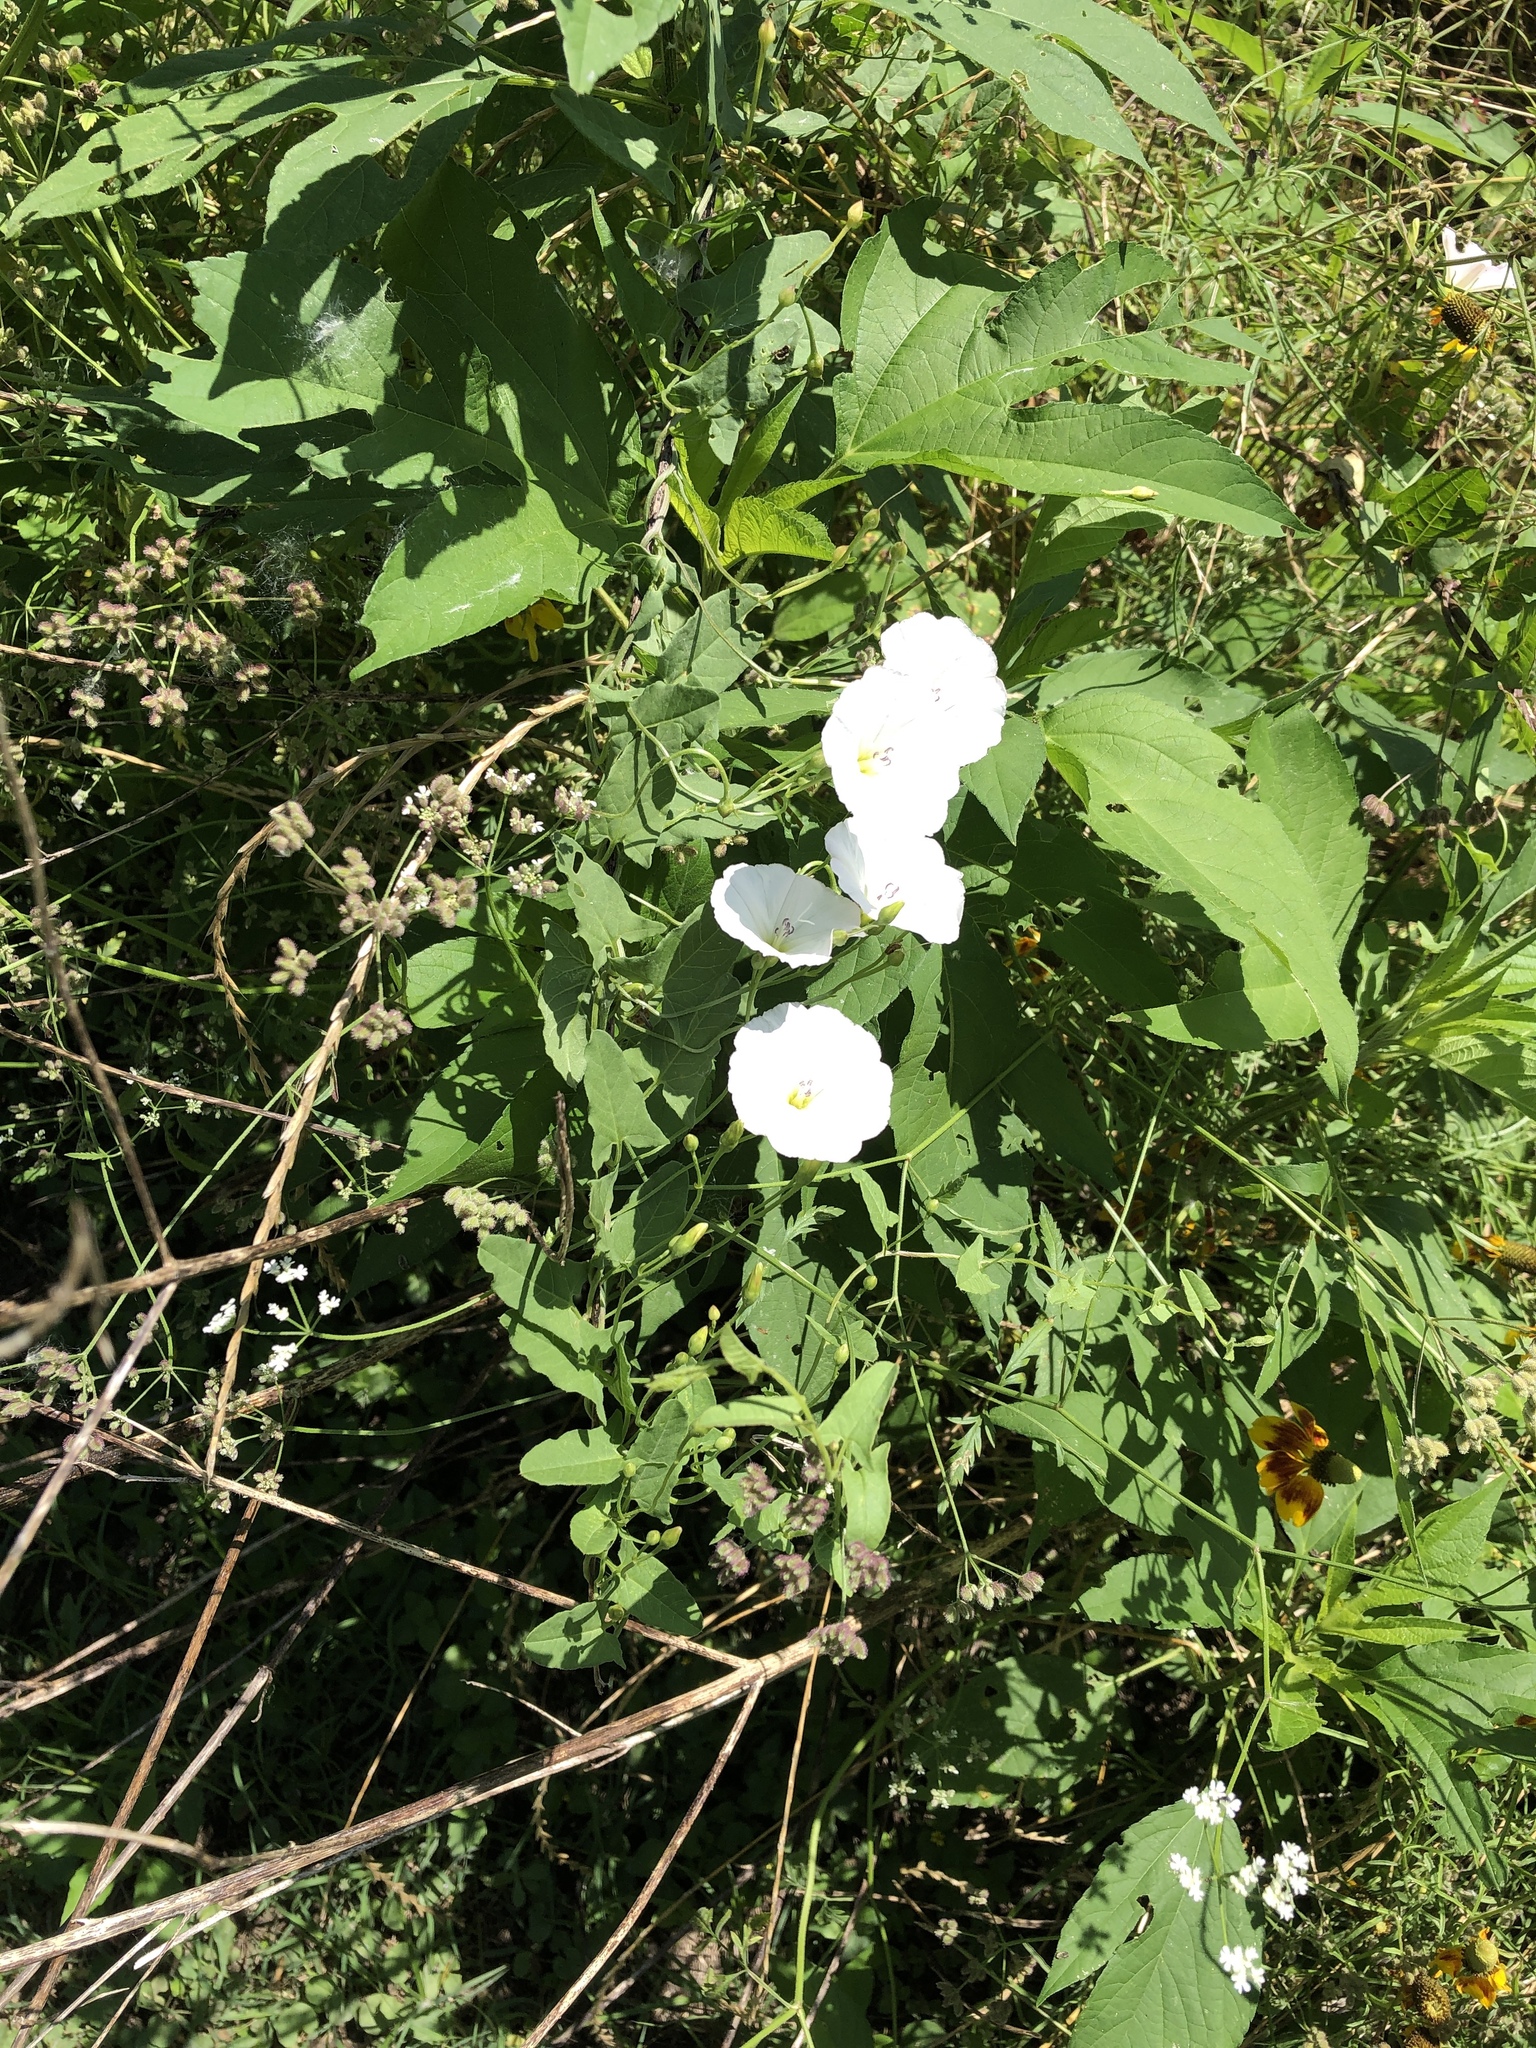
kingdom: Plantae
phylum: Tracheophyta
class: Magnoliopsida
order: Solanales
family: Convolvulaceae
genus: Convolvulus
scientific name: Convolvulus arvensis
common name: Field bindweed
